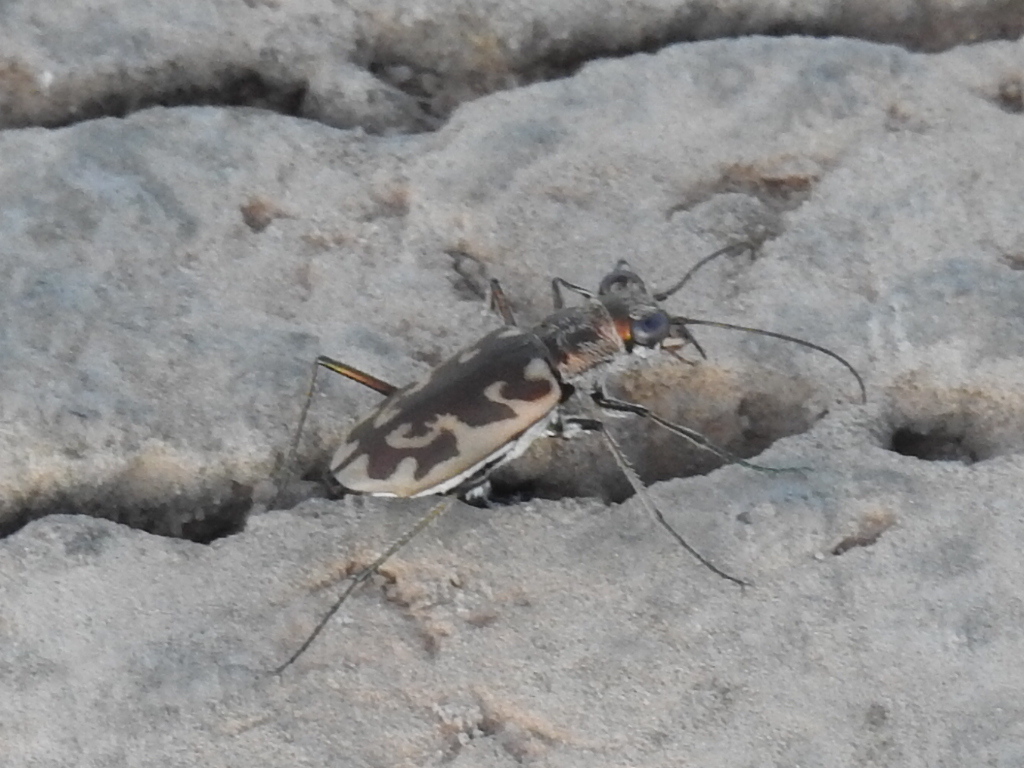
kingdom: Animalia
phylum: Arthropoda
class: Insecta
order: Coleoptera
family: Carabidae
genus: Ellipsoptera
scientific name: Ellipsoptera macra
